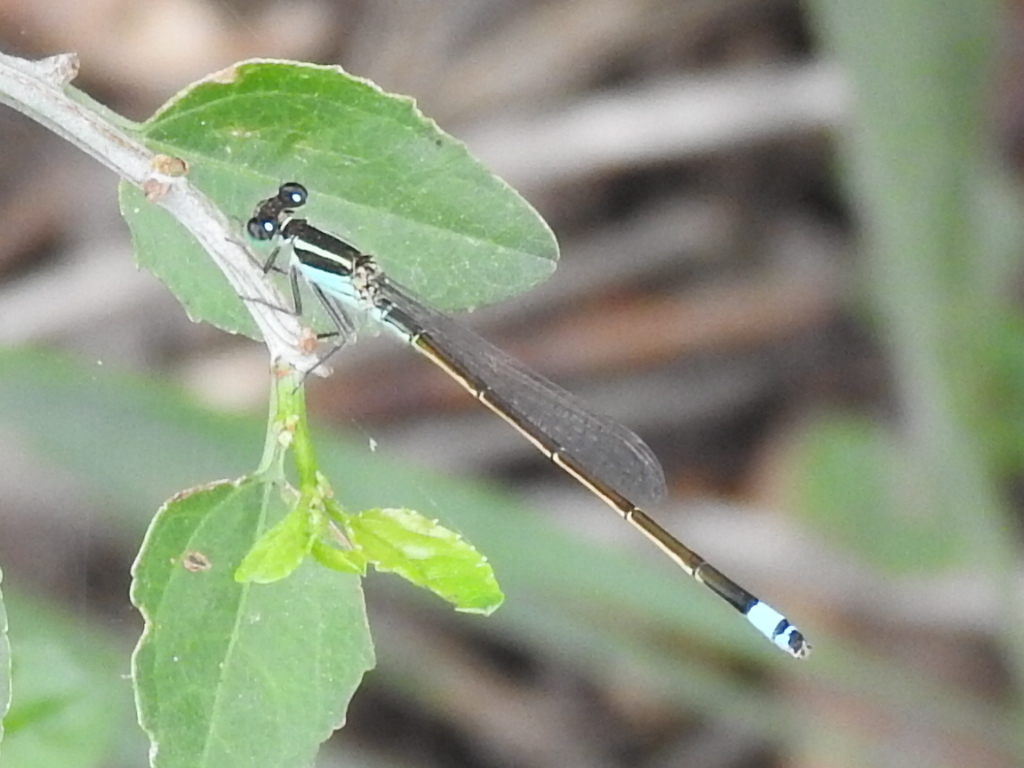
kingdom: Animalia
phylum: Arthropoda
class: Insecta
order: Odonata
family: Coenagrionidae
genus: Ischnura
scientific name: Ischnura ramburii
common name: Rambur's forktail
